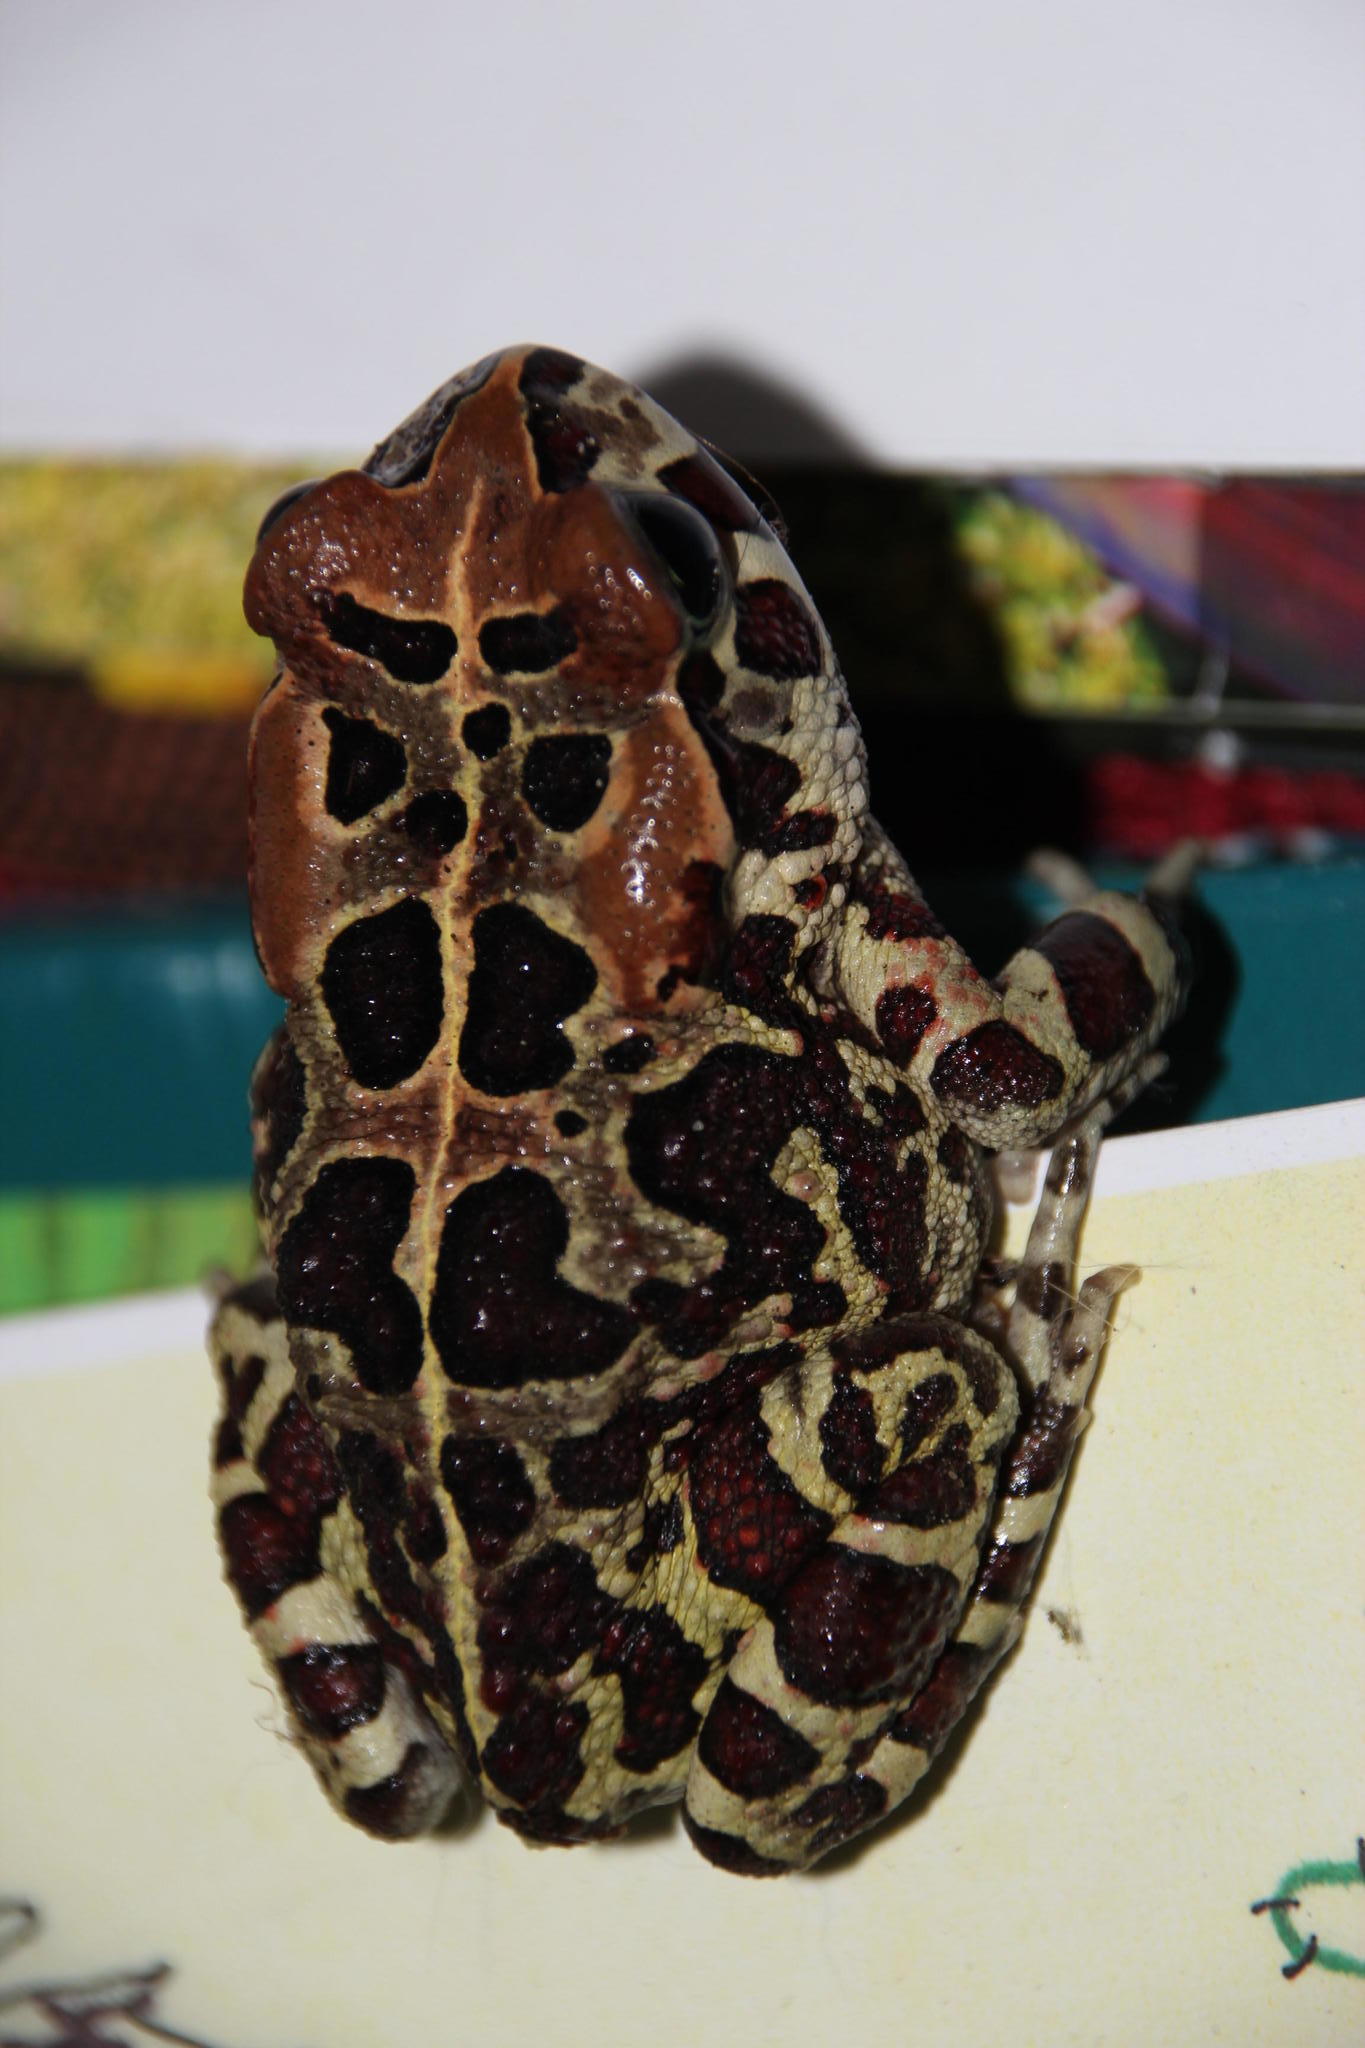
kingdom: Animalia
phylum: Chordata
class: Amphibia
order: Anura
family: Bufonidae
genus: Sclerophrys
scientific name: Sclerophrys pantherina
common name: Panther toad
